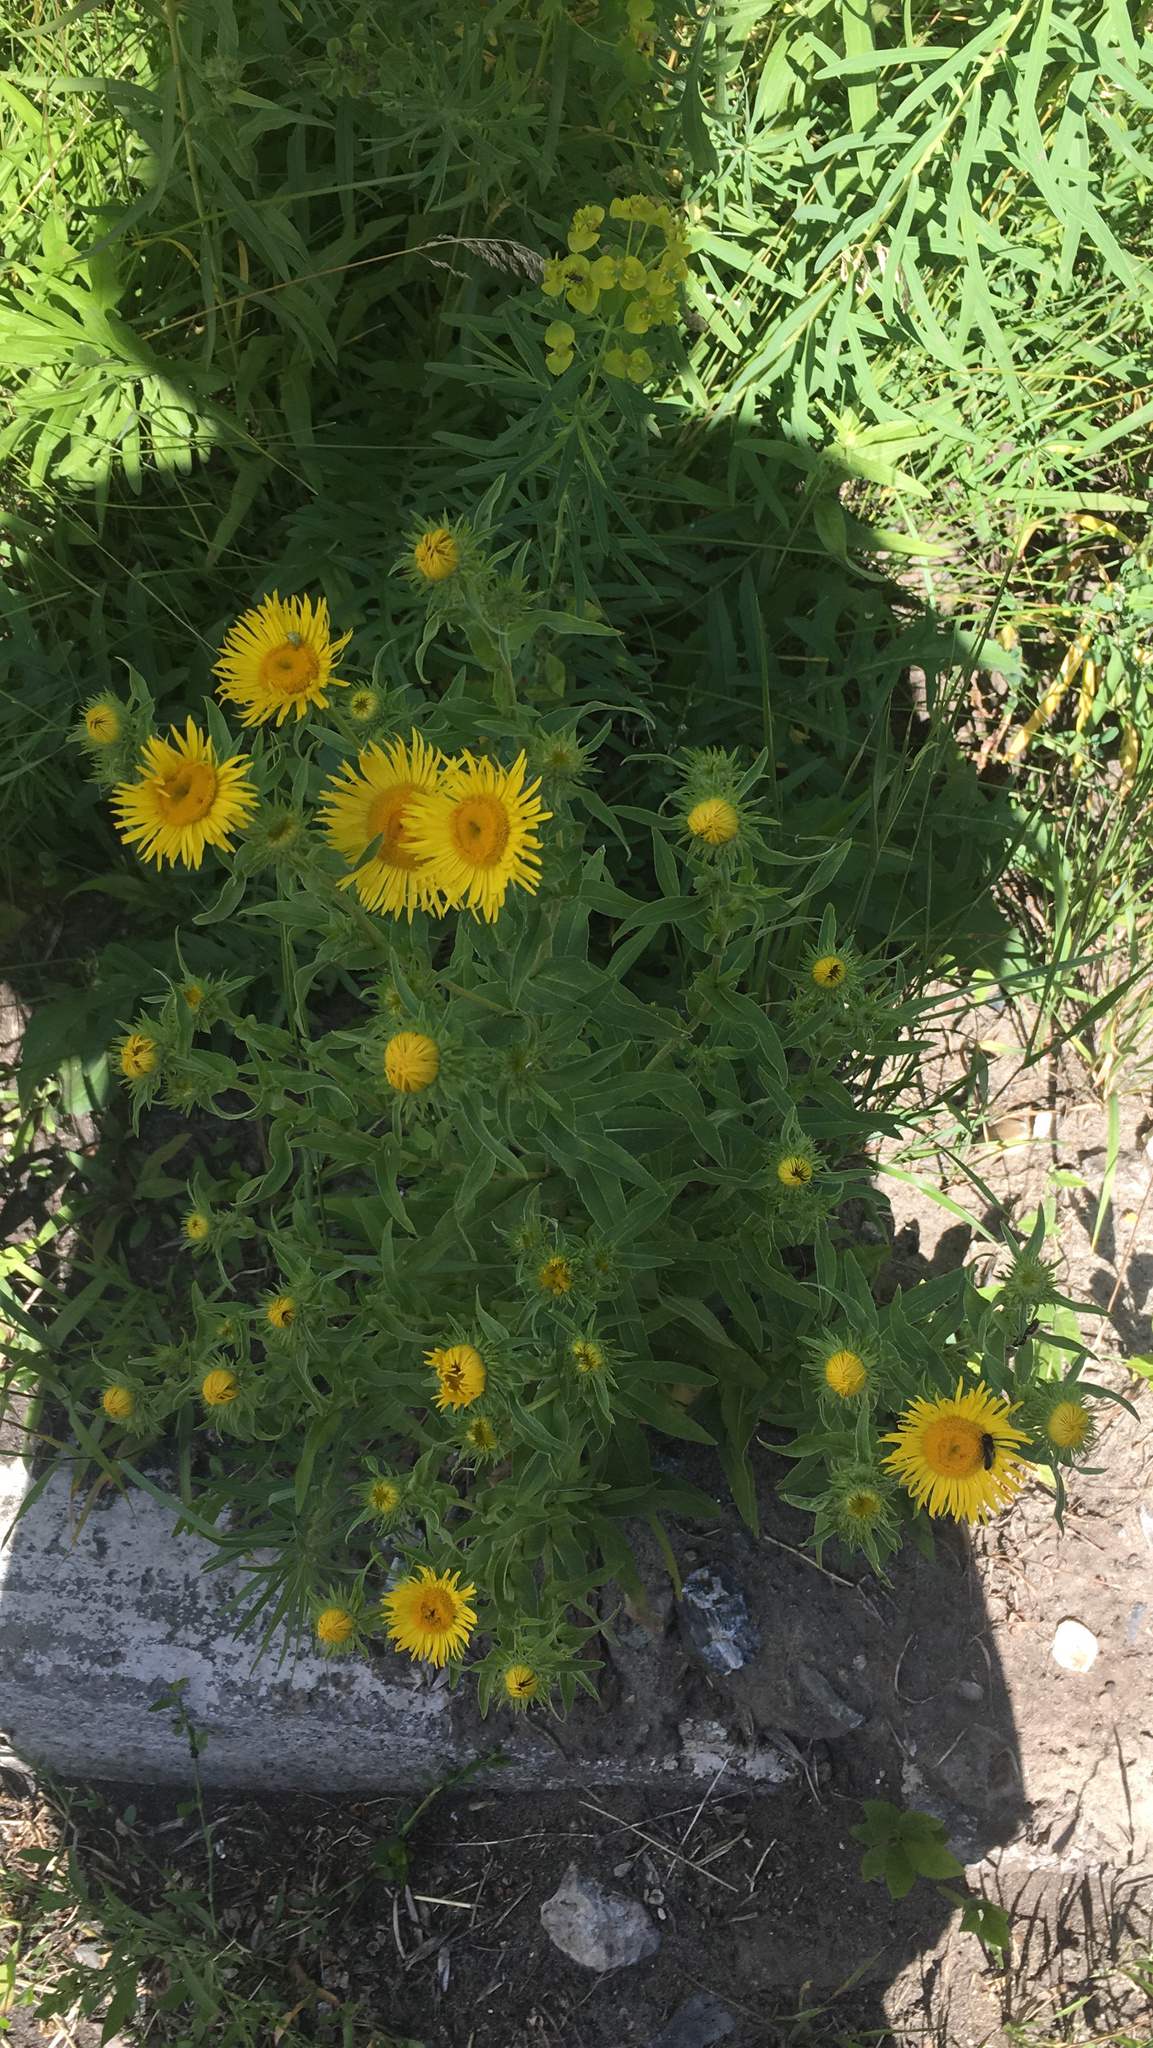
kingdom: Plantae
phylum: Tracheophyta
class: Magnoliopsida
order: Asterales
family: Asteraceae
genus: Pentanema
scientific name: Pentanema britannicum
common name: British elecampane
